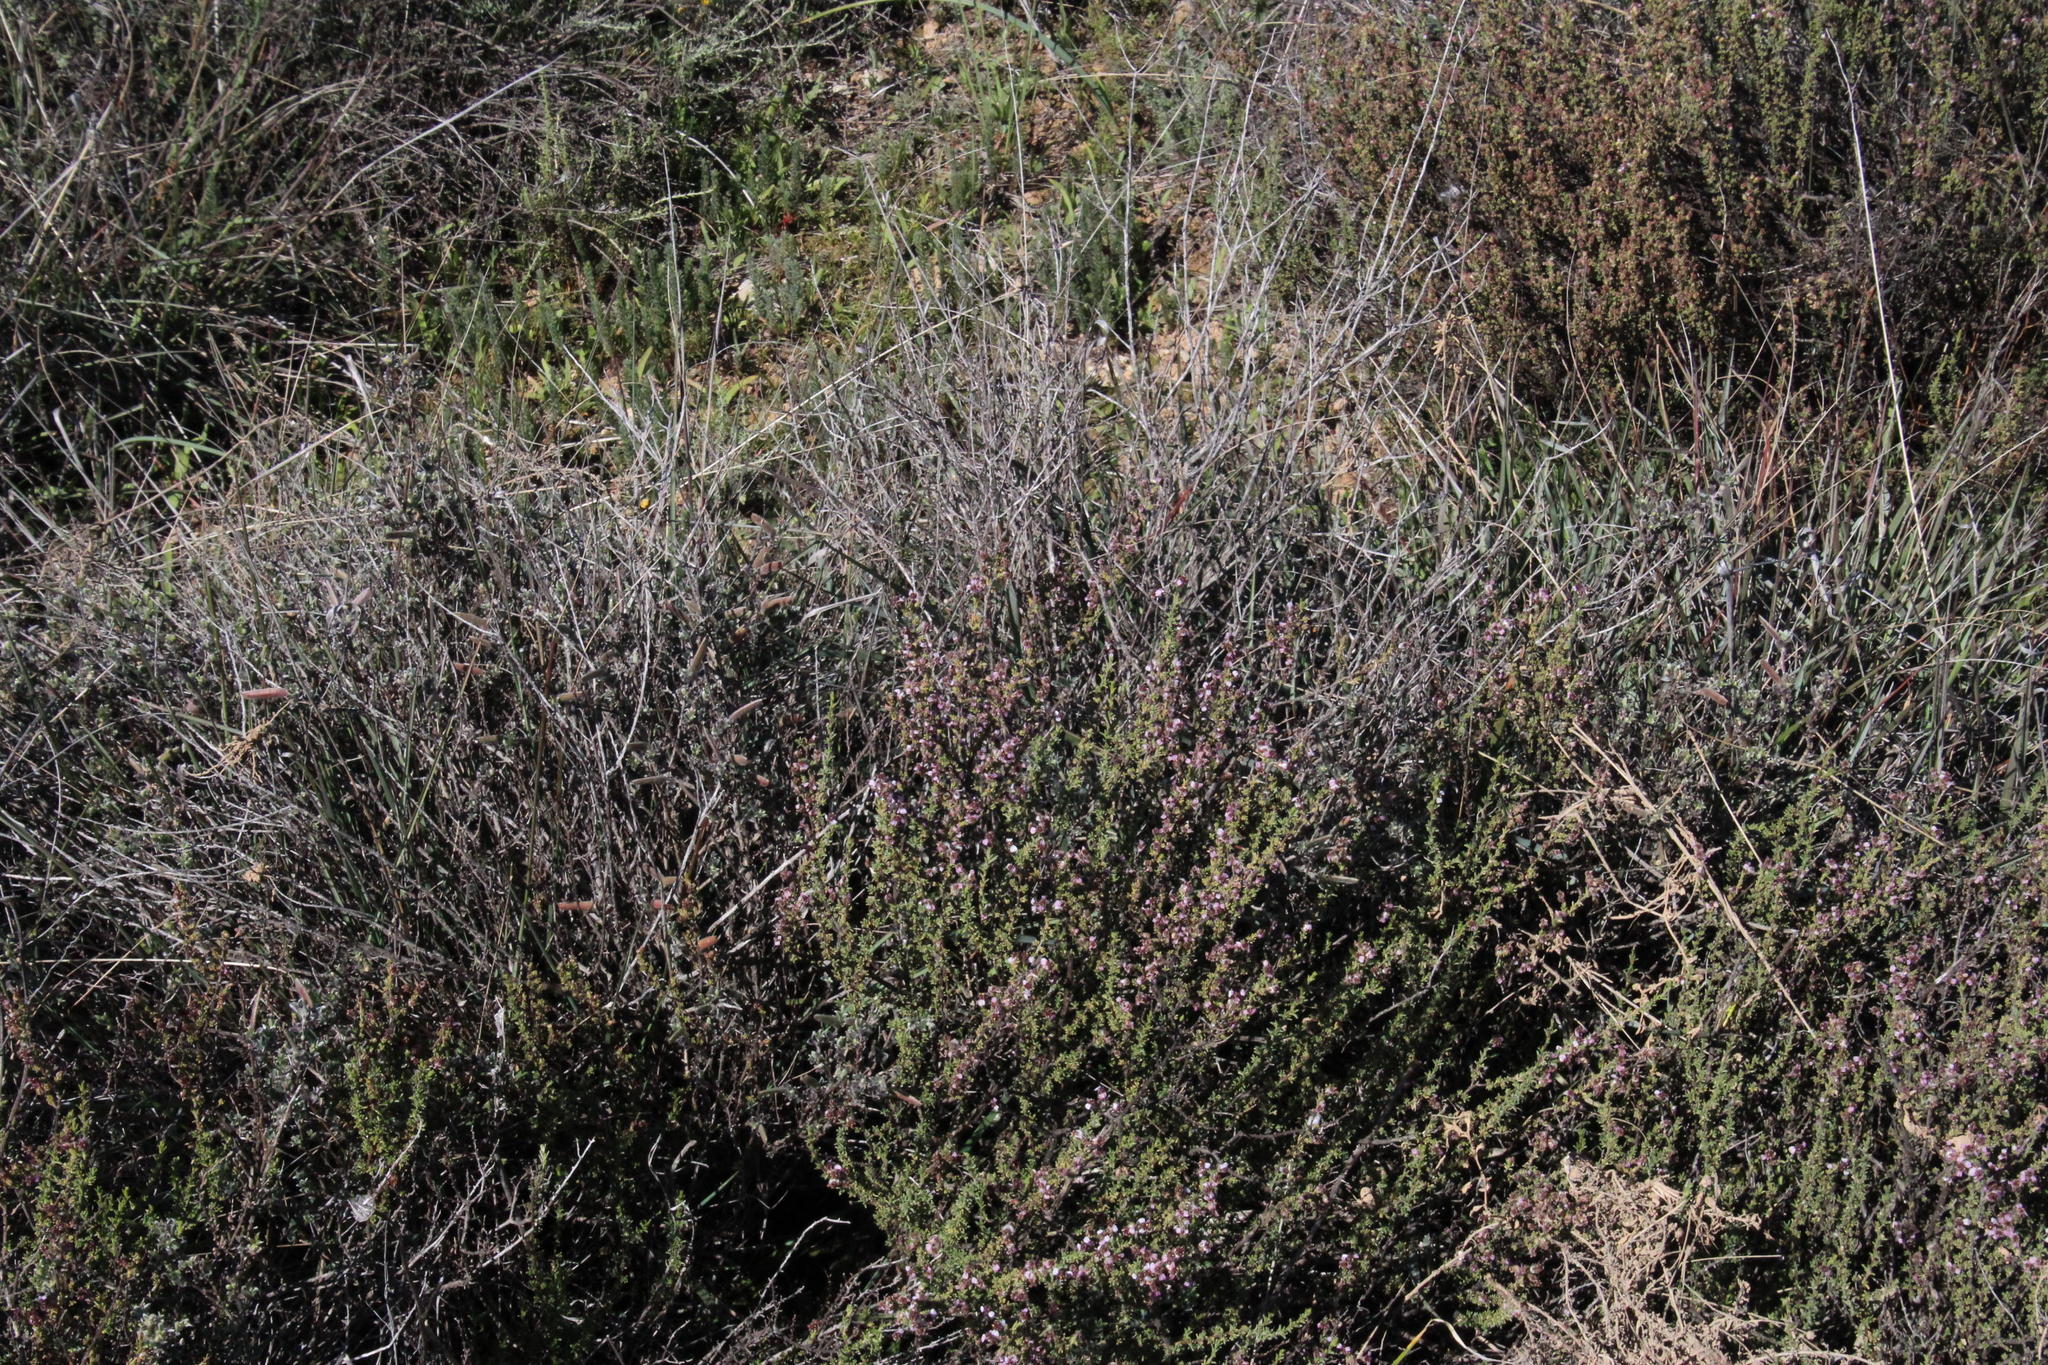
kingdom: Plantae
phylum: Tracheophyta
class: Magnoliopsida
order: Asterales
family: Asteraceae
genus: Eriocephalus
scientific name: Eriocephalus purpureus
